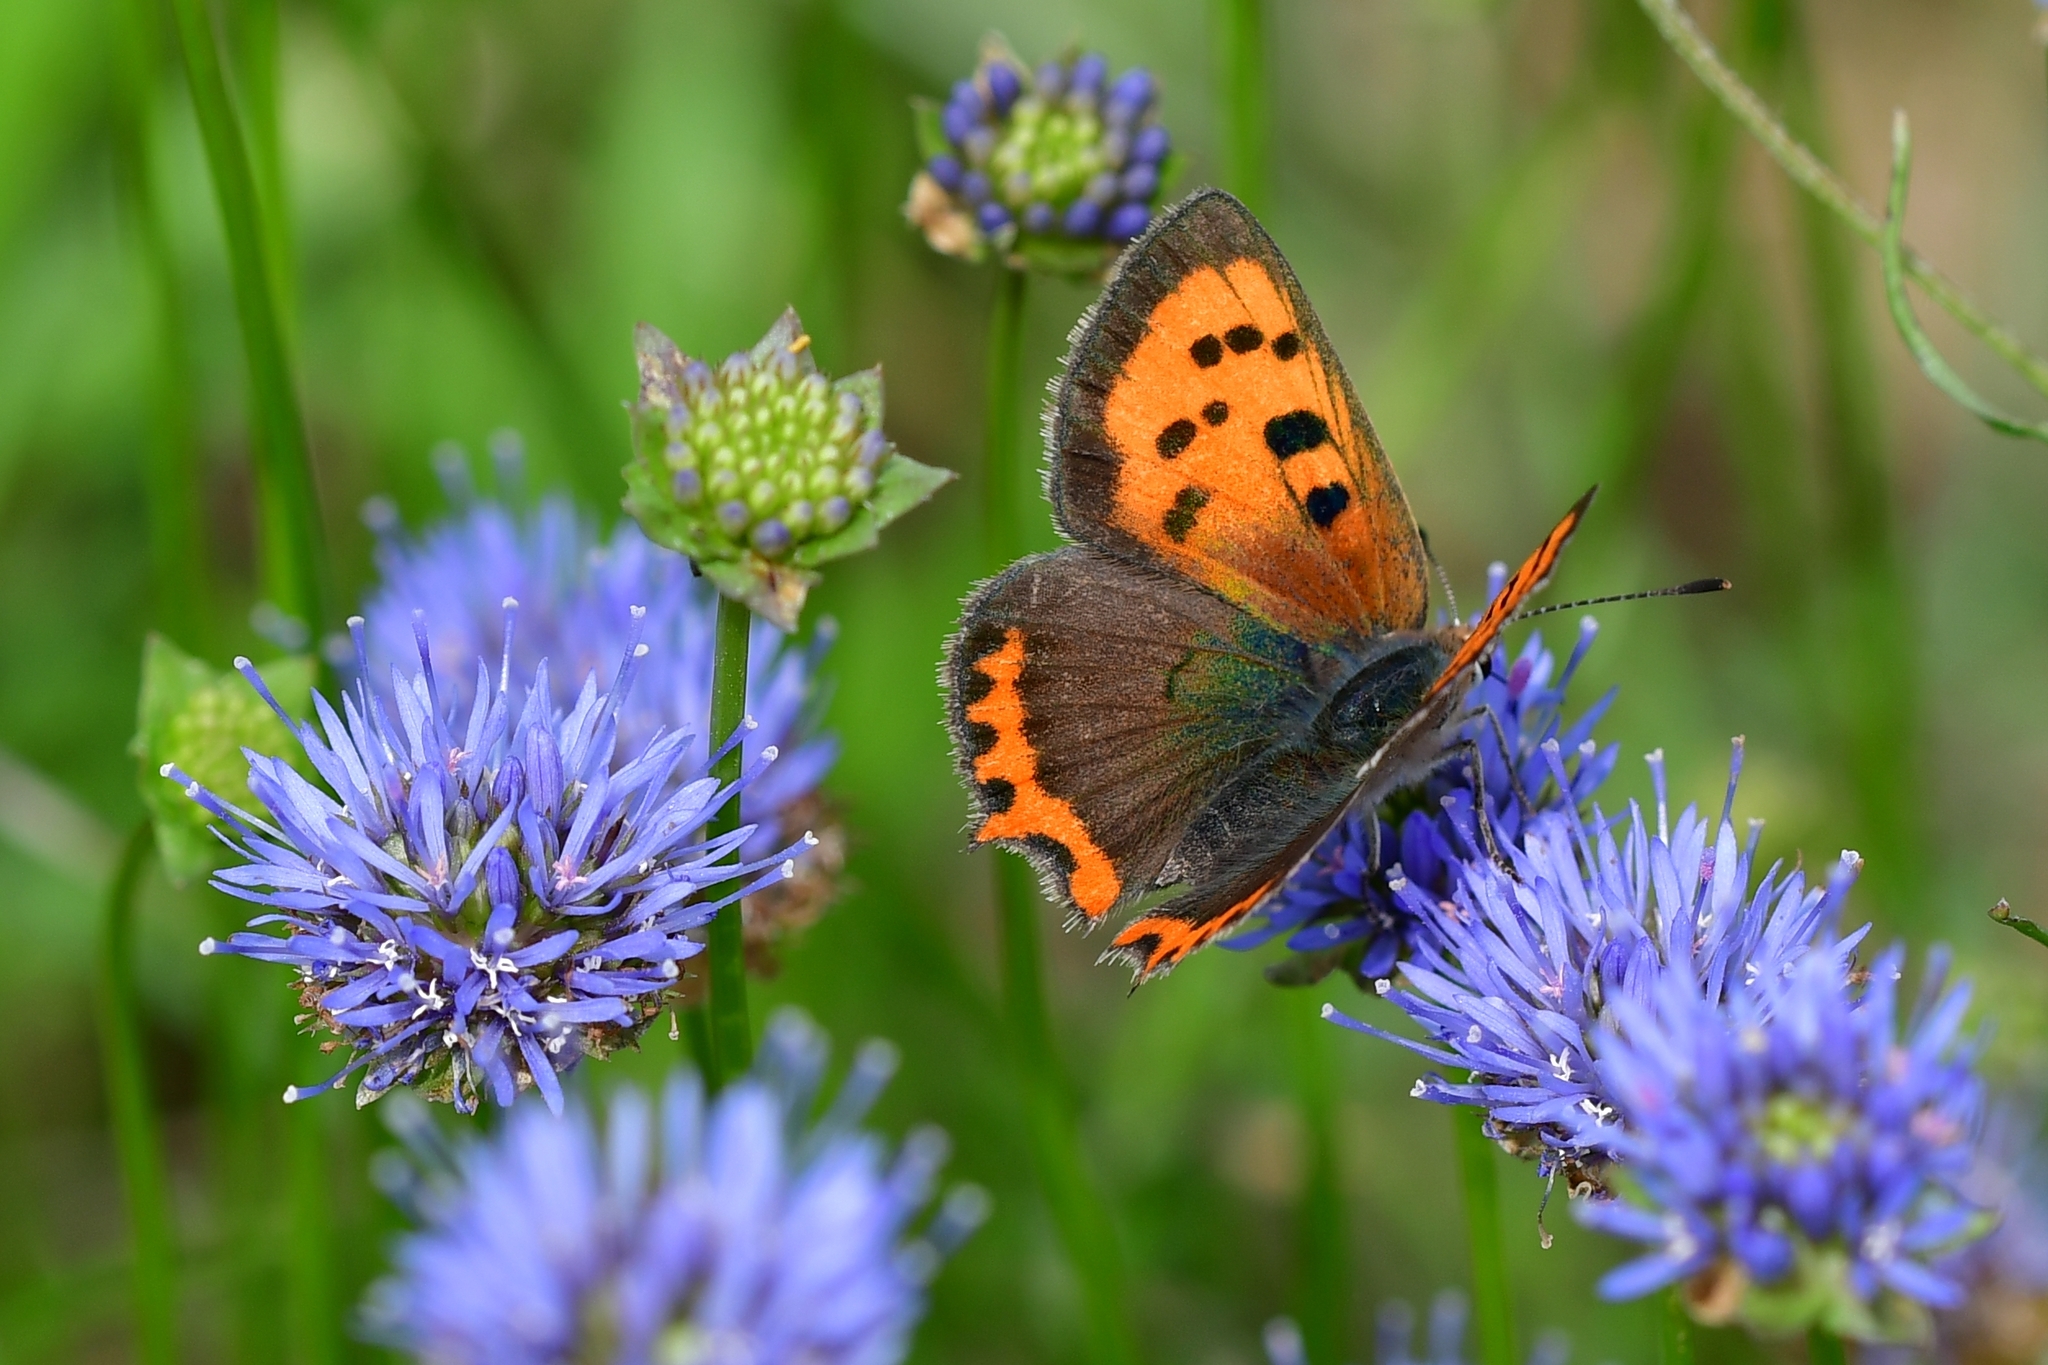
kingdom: Animalia
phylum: Arthropoda
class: Insecta
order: Lepidoptera
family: Lycaenidae
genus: Lycaena
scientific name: Lycaena phlaeas
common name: Small copper
